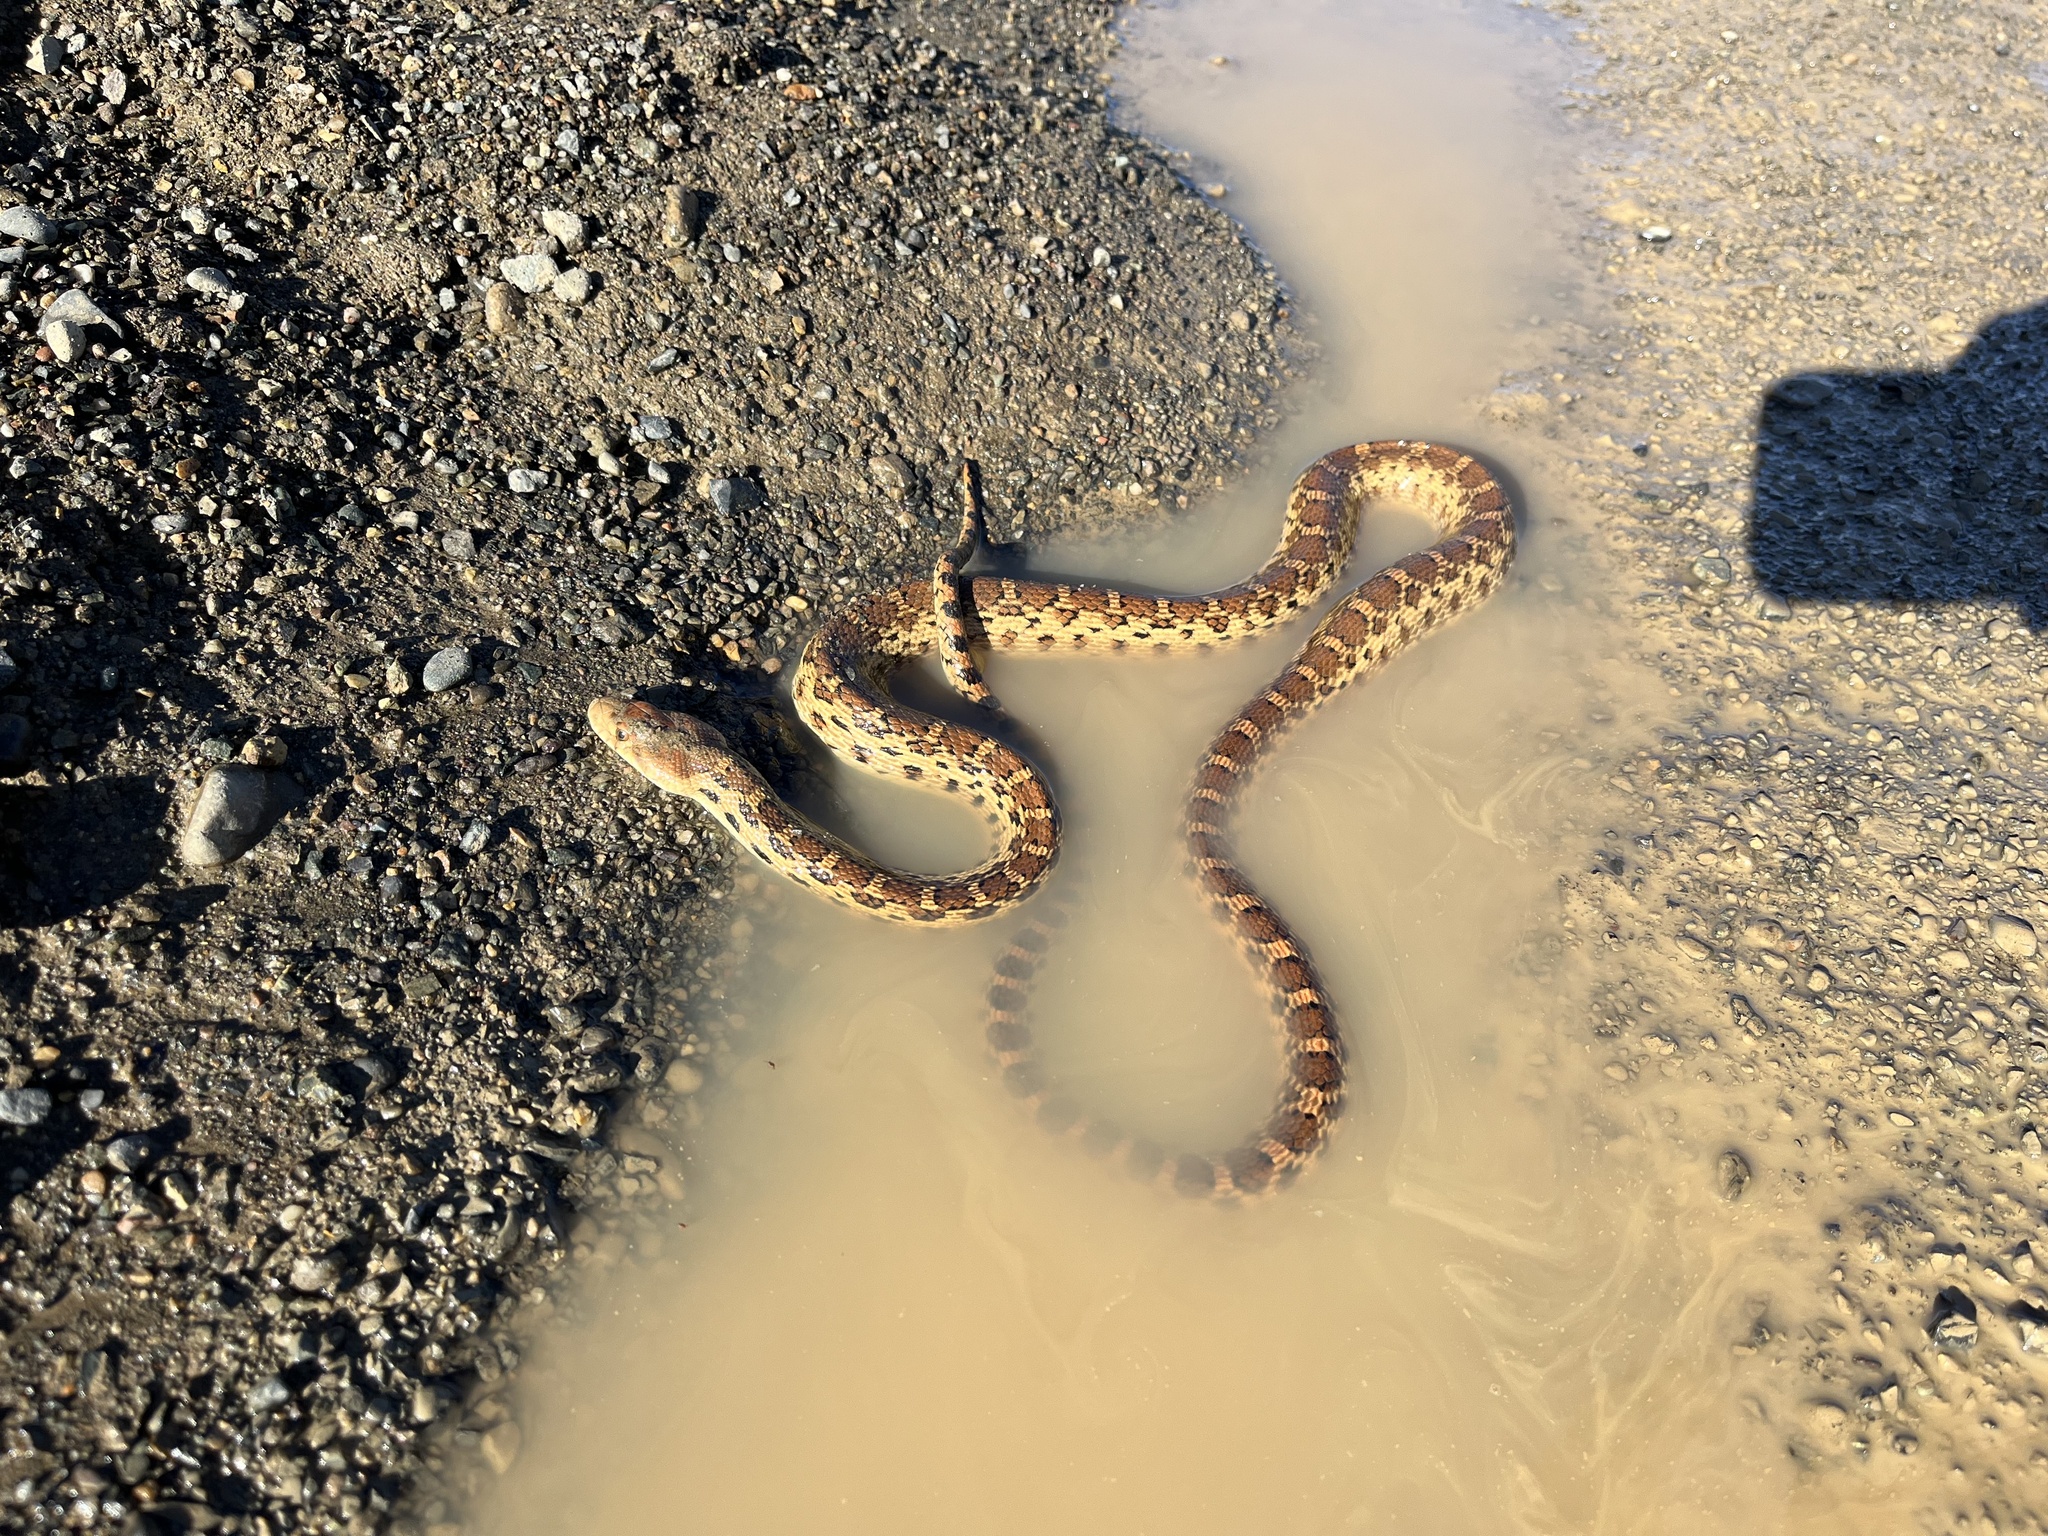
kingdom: Animalia
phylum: Chordata
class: Squamata
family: Colubridae
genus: Pituophis
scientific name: Pituophis catenifer
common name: Gopher snake
